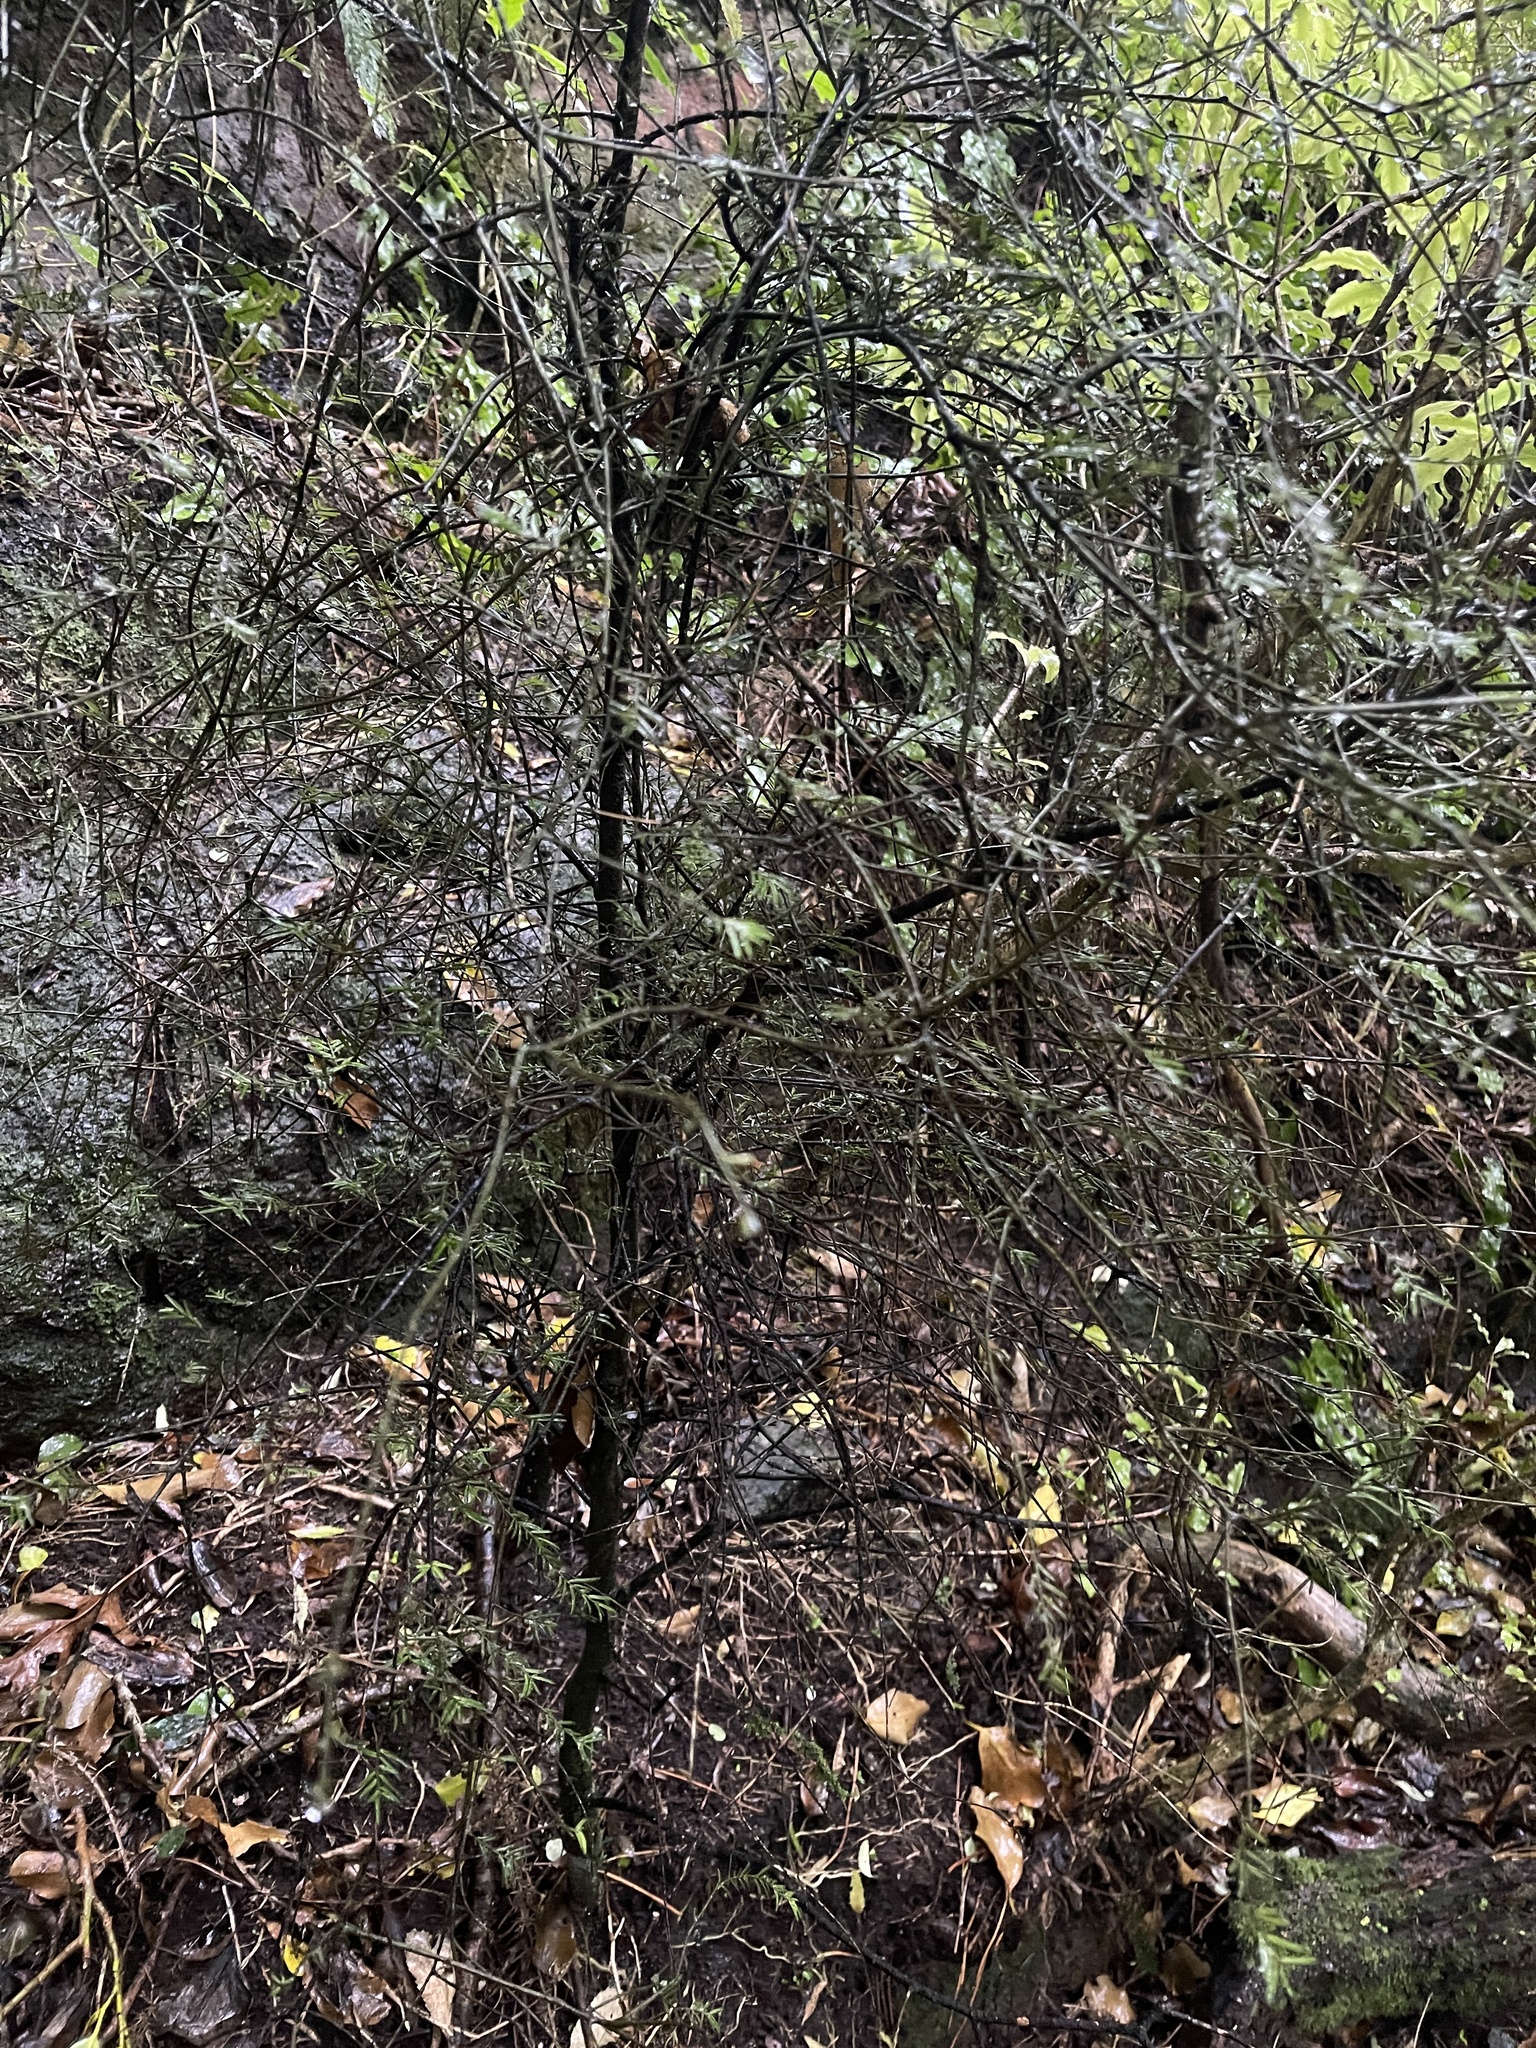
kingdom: Plantae
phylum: Tracheophyta
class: Pinopsida
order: Pinales
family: Podocarpaceae
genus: Prumnopitys
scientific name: Prumnopitys taxifolia
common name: Matai
